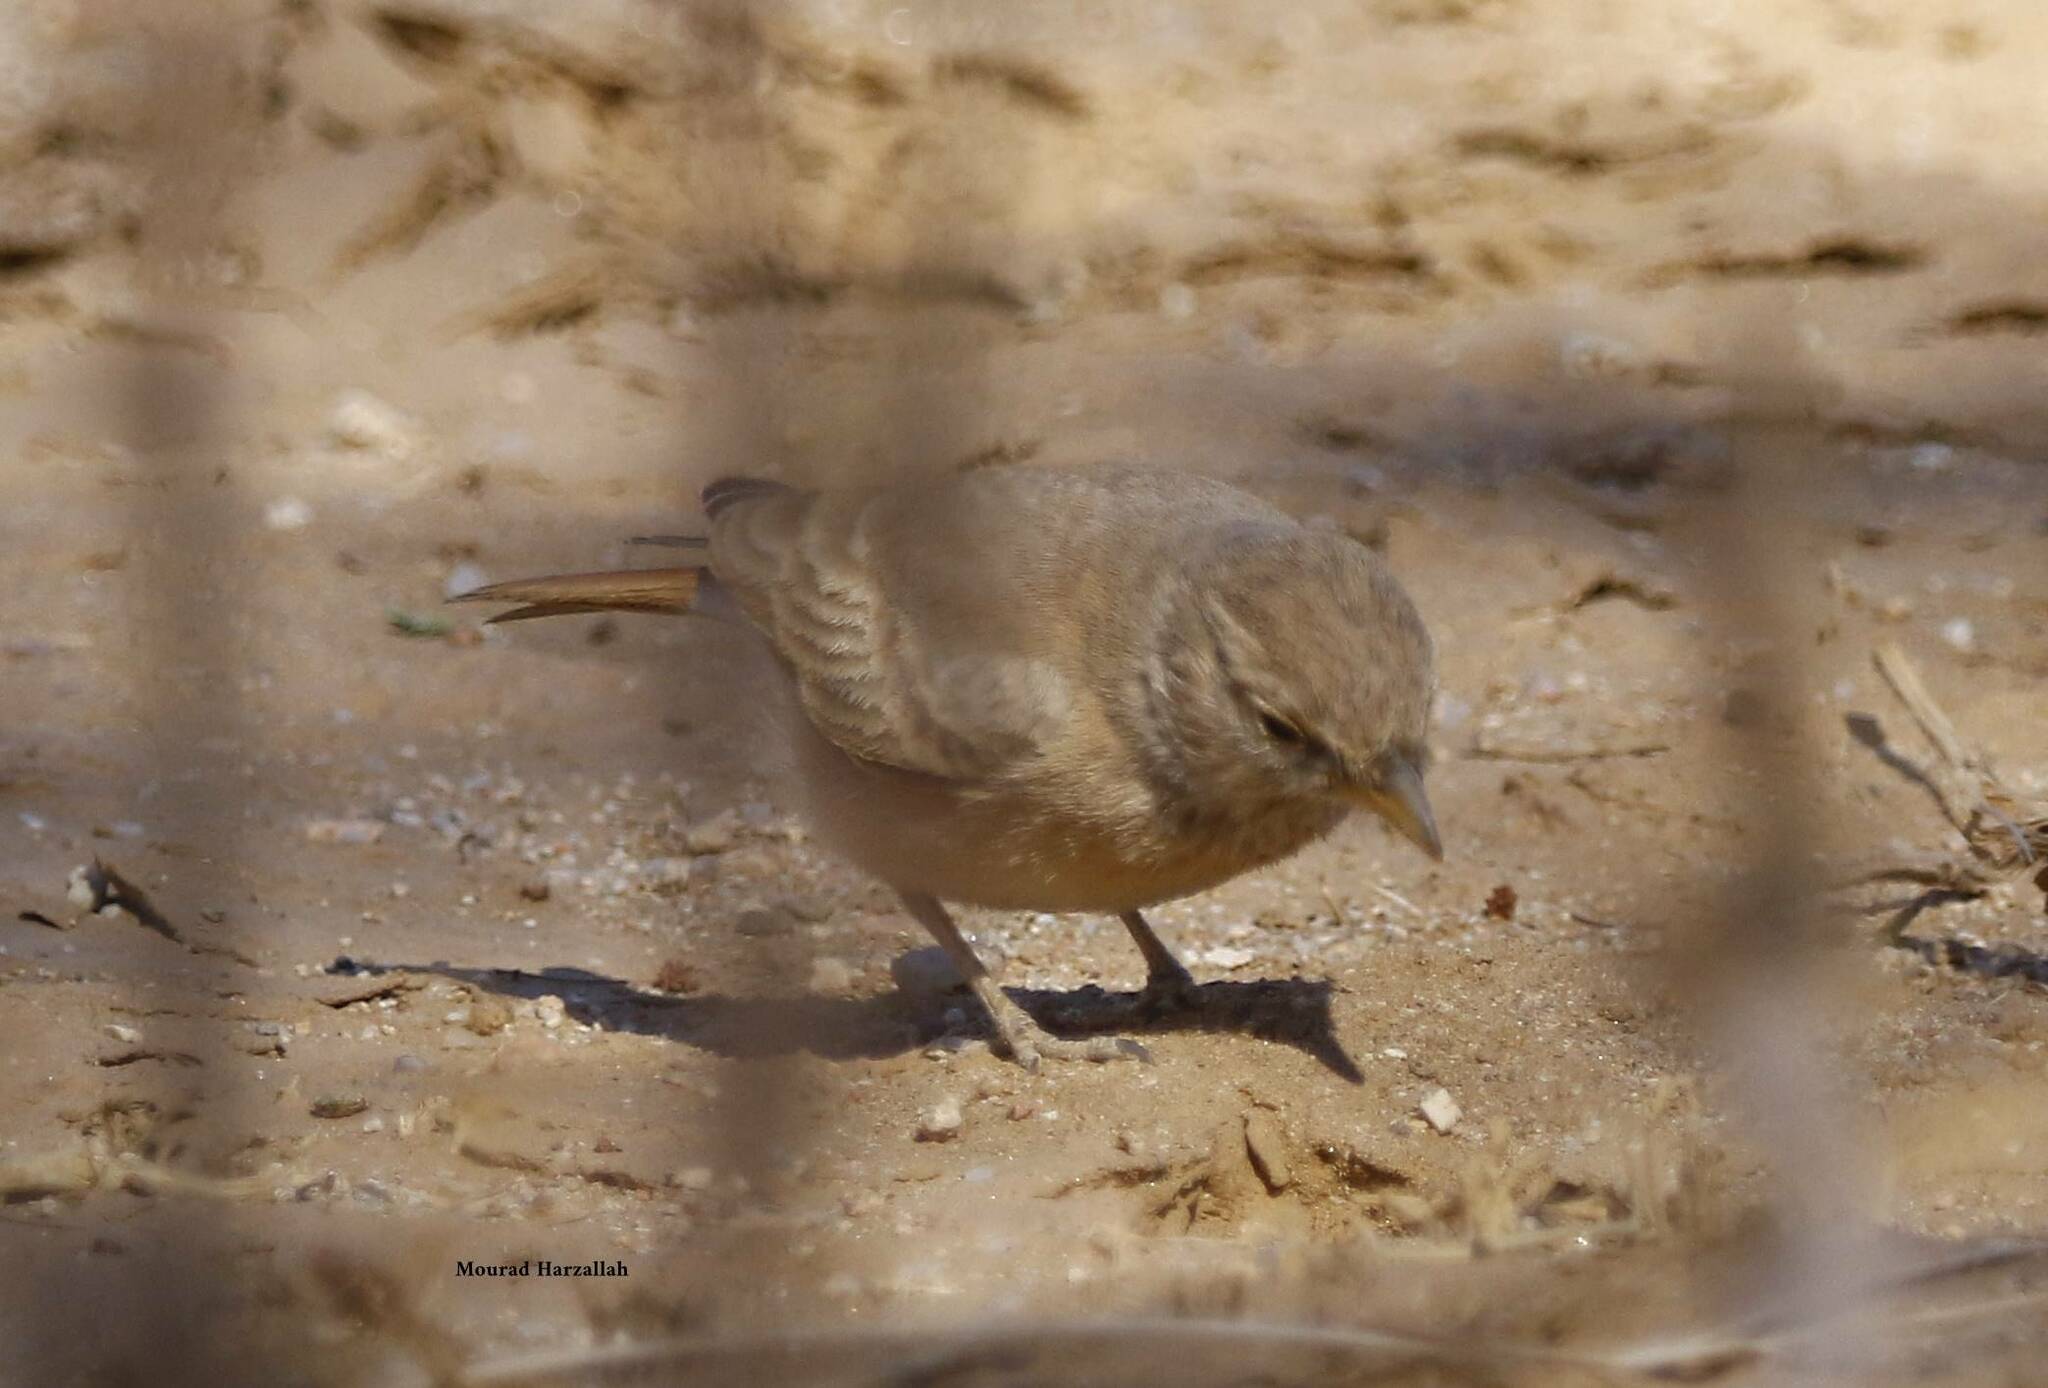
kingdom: Animalia
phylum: Chordata
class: Aves
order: Passeriformes
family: Alaudidae
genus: Ammomanes
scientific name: Ammomanes deserti
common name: Desert lark
